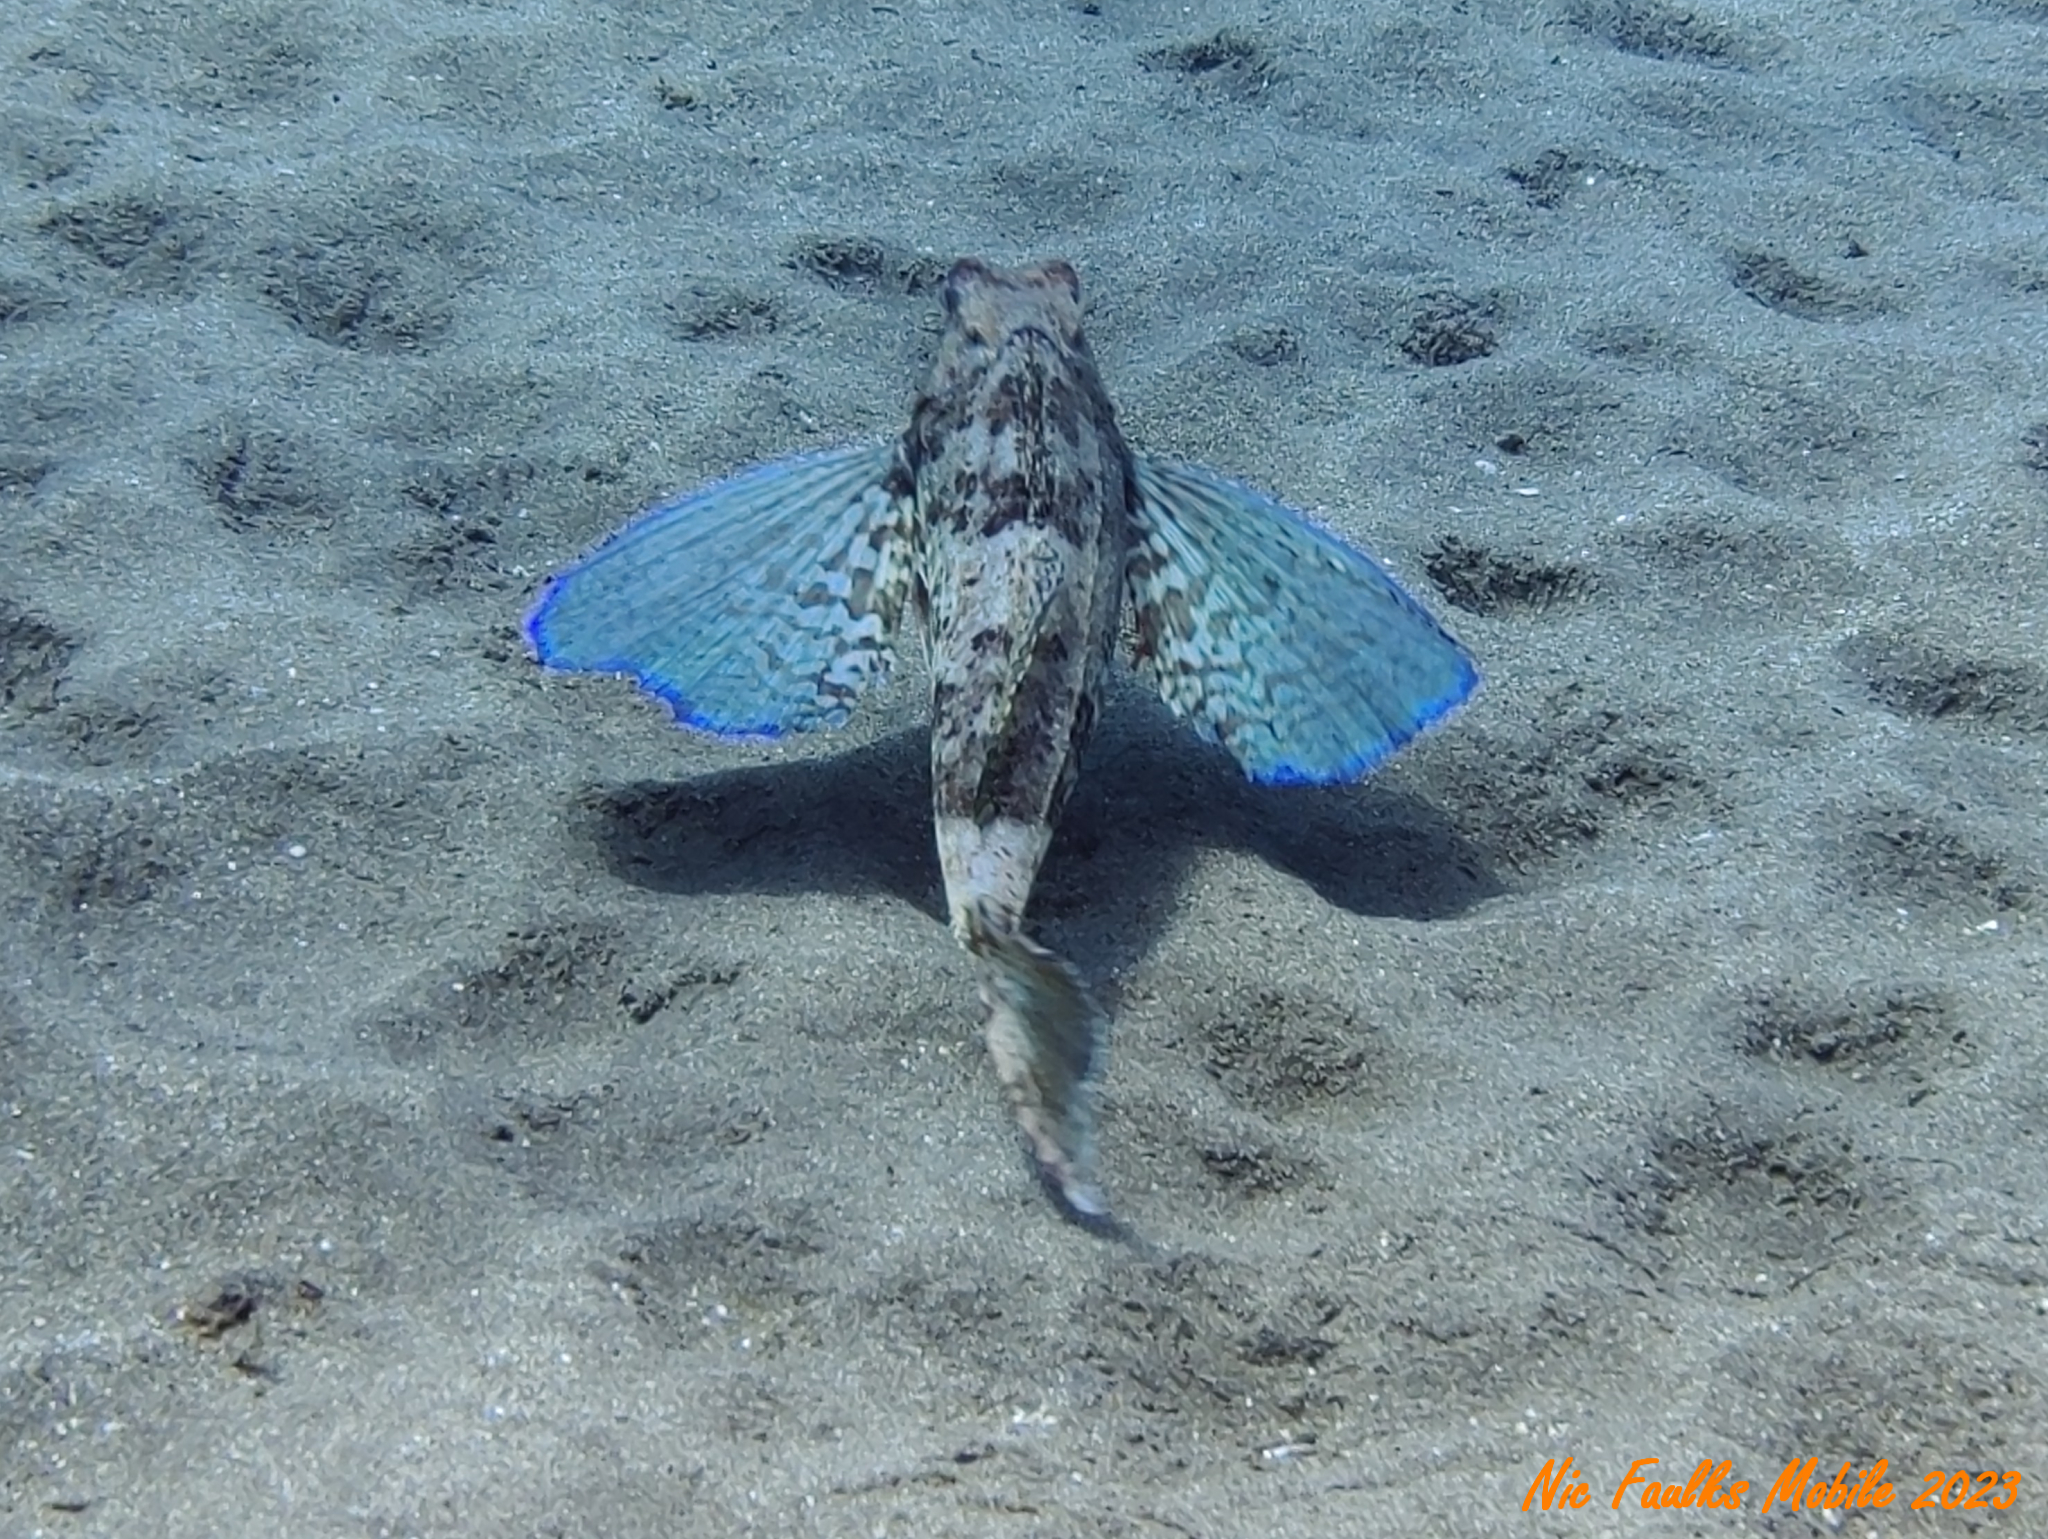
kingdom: Animalia
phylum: Chordata
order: Scorpaeniformes
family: Triglidae
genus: Chelidonichthys
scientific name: Chelidonichthys lastoviza
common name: Streaked gurnard
